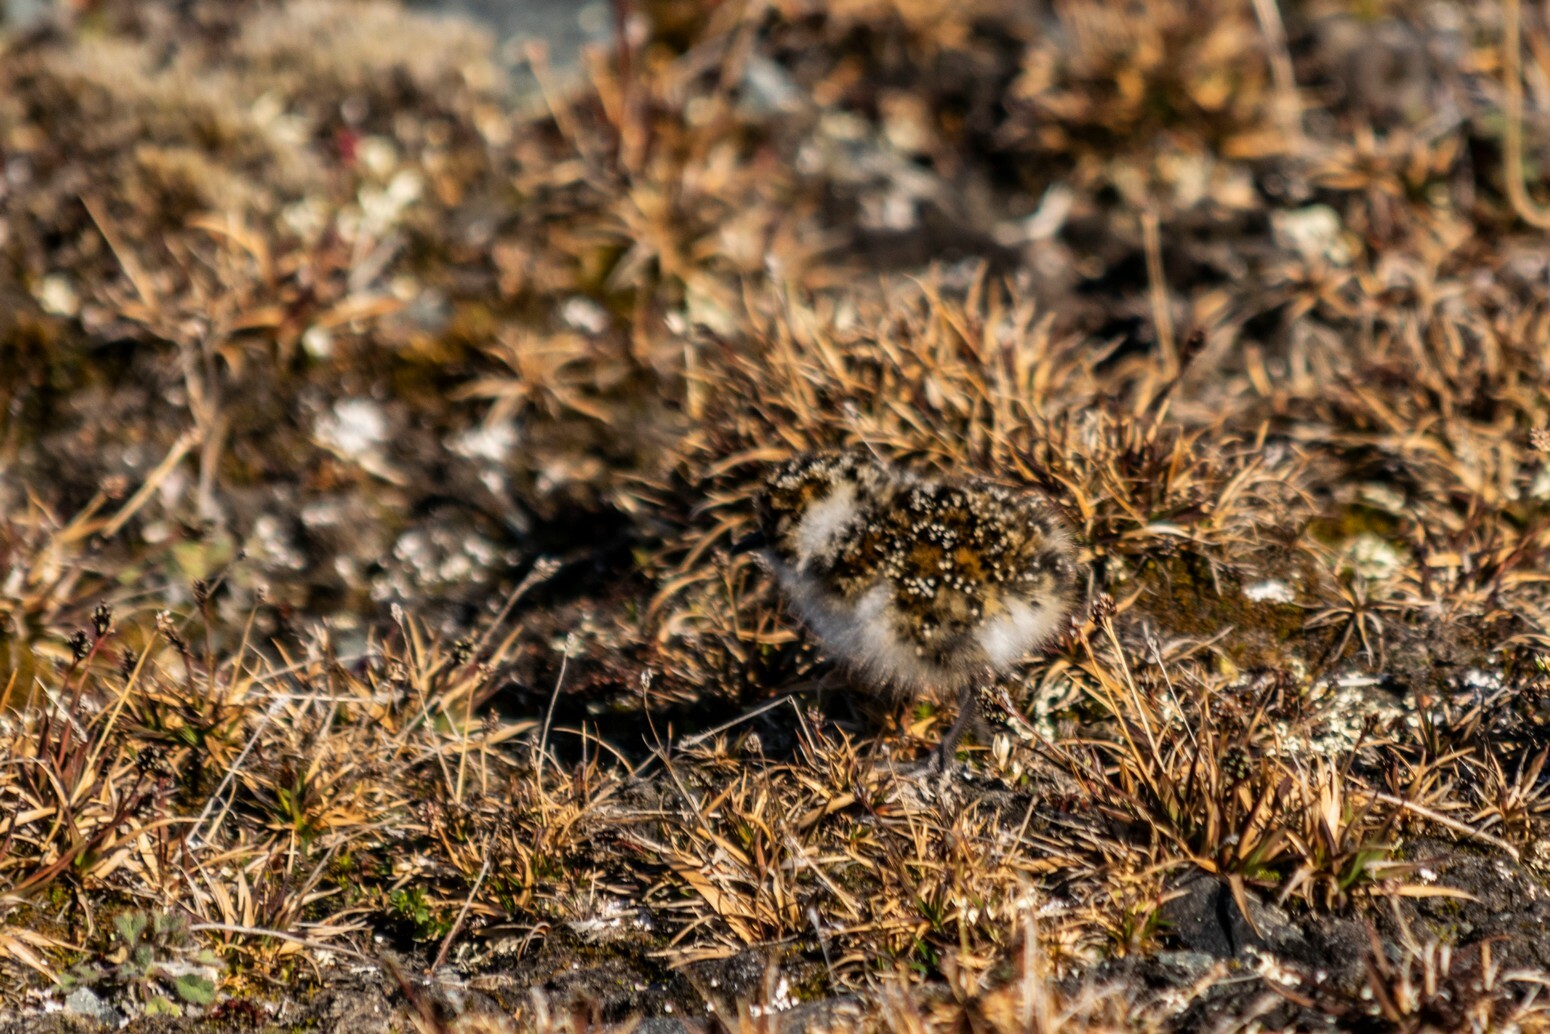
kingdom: Animalia
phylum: Chordata
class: Aves
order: Charadriiformes
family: Scolopacidae
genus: Calidris
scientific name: Calidris maritima
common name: Purple sandpiper
